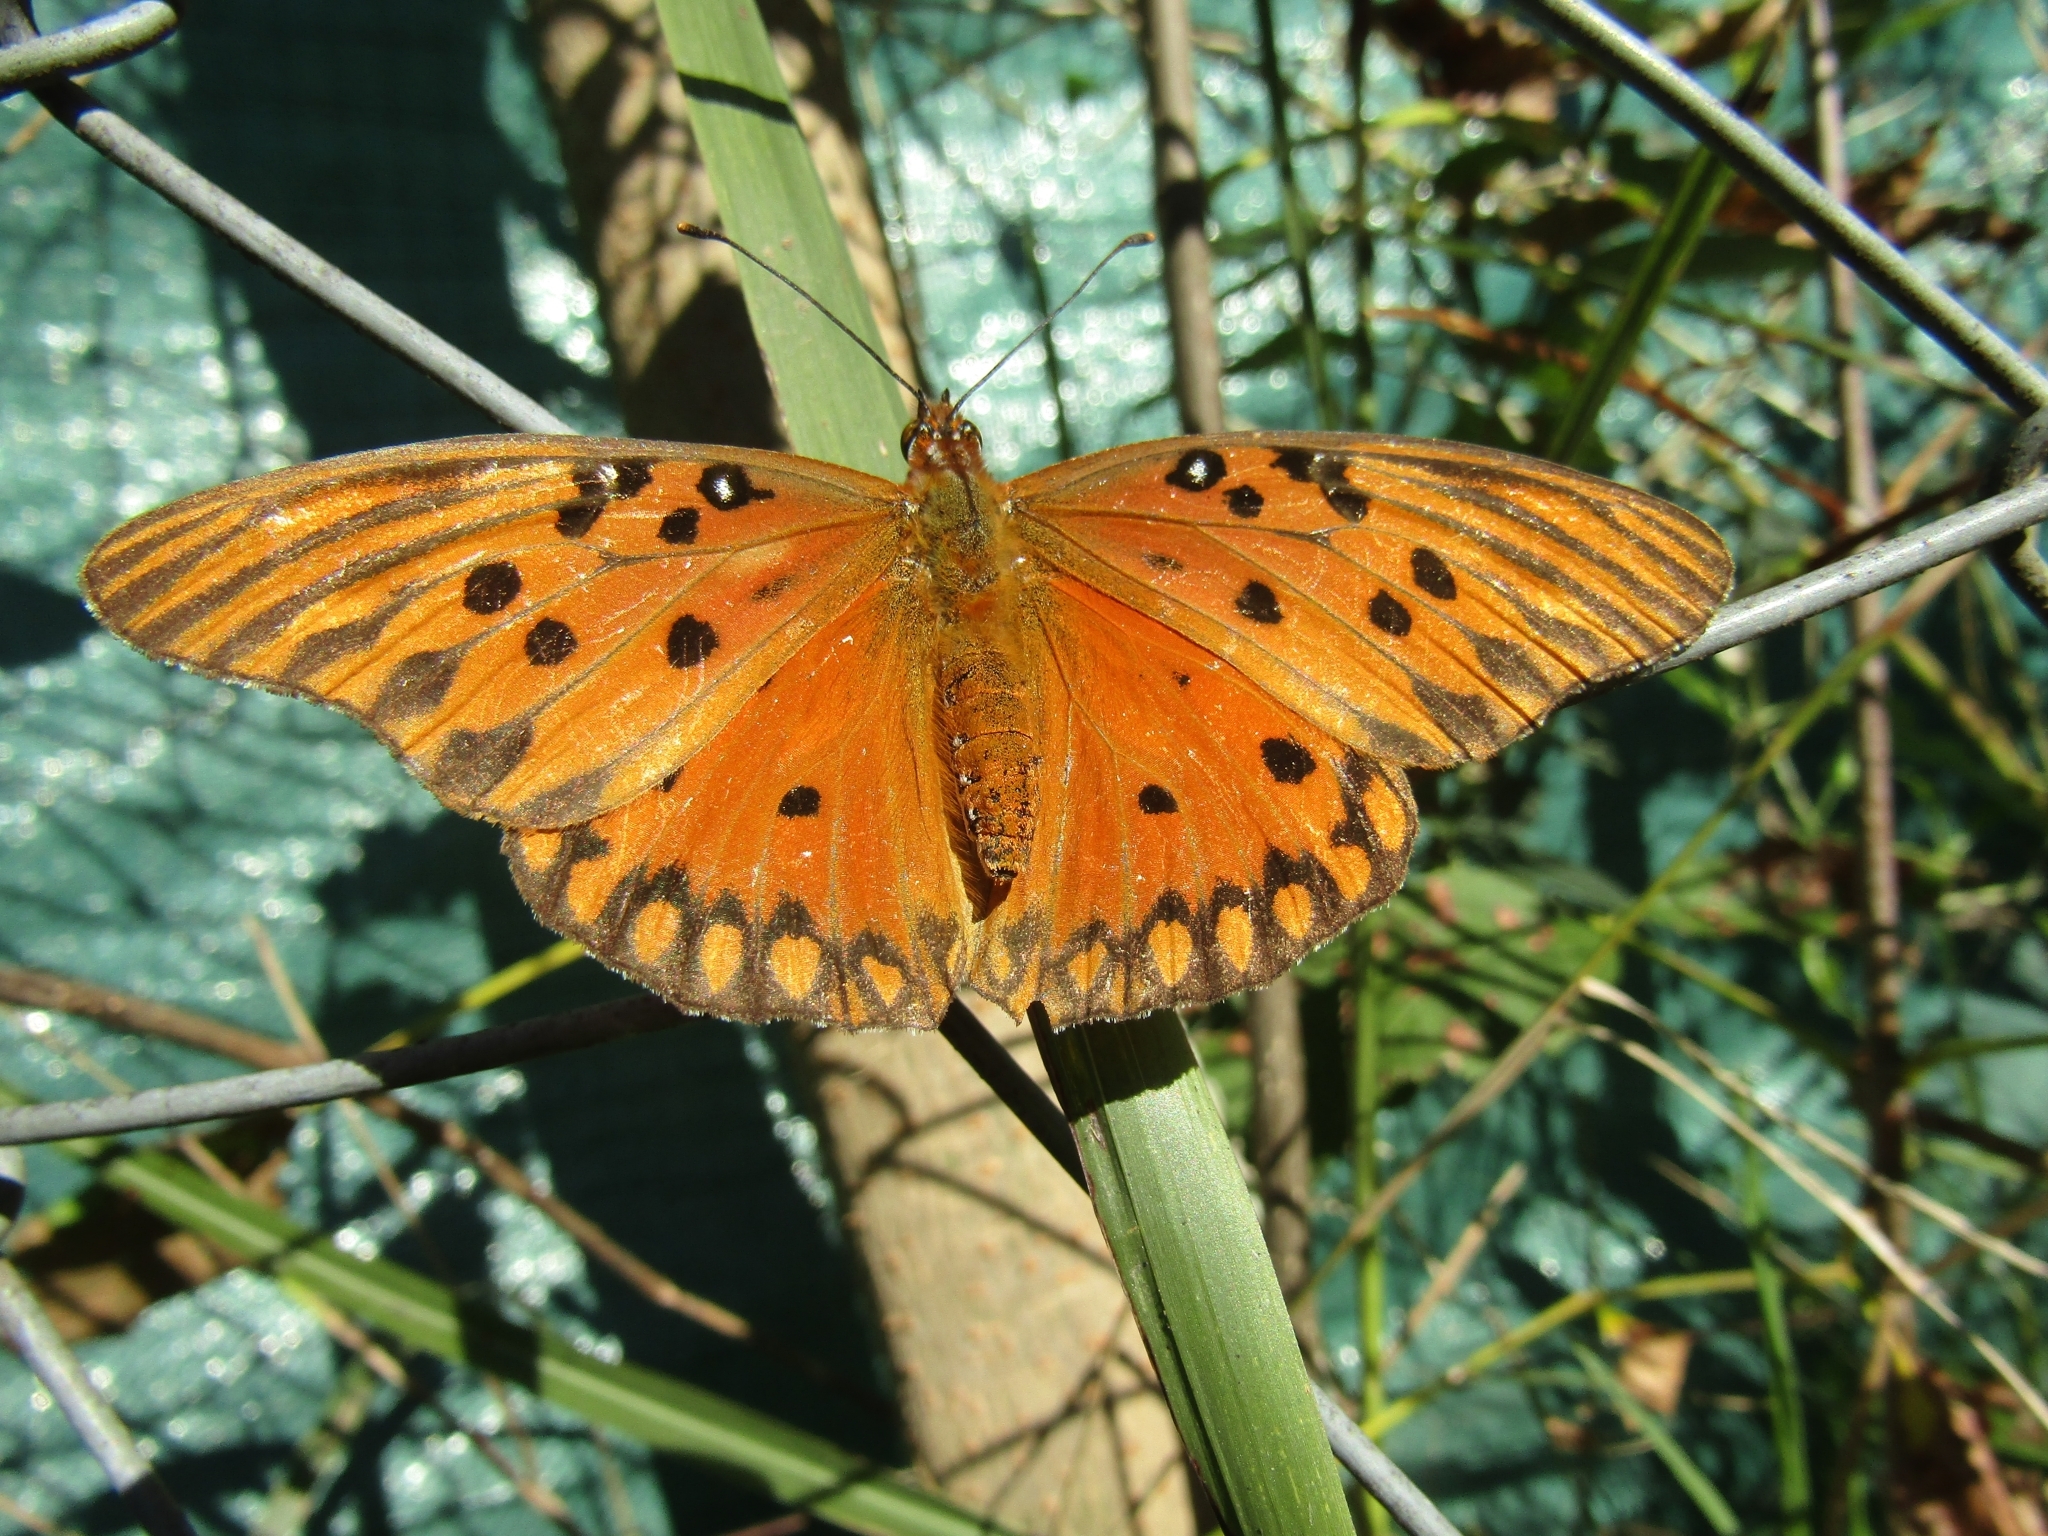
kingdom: Animalia
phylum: Arthropoda
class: Insecta
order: Lepidoptera
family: Nymphalidae
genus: Dione
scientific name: Dione vanillae
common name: Gulf fritillary
